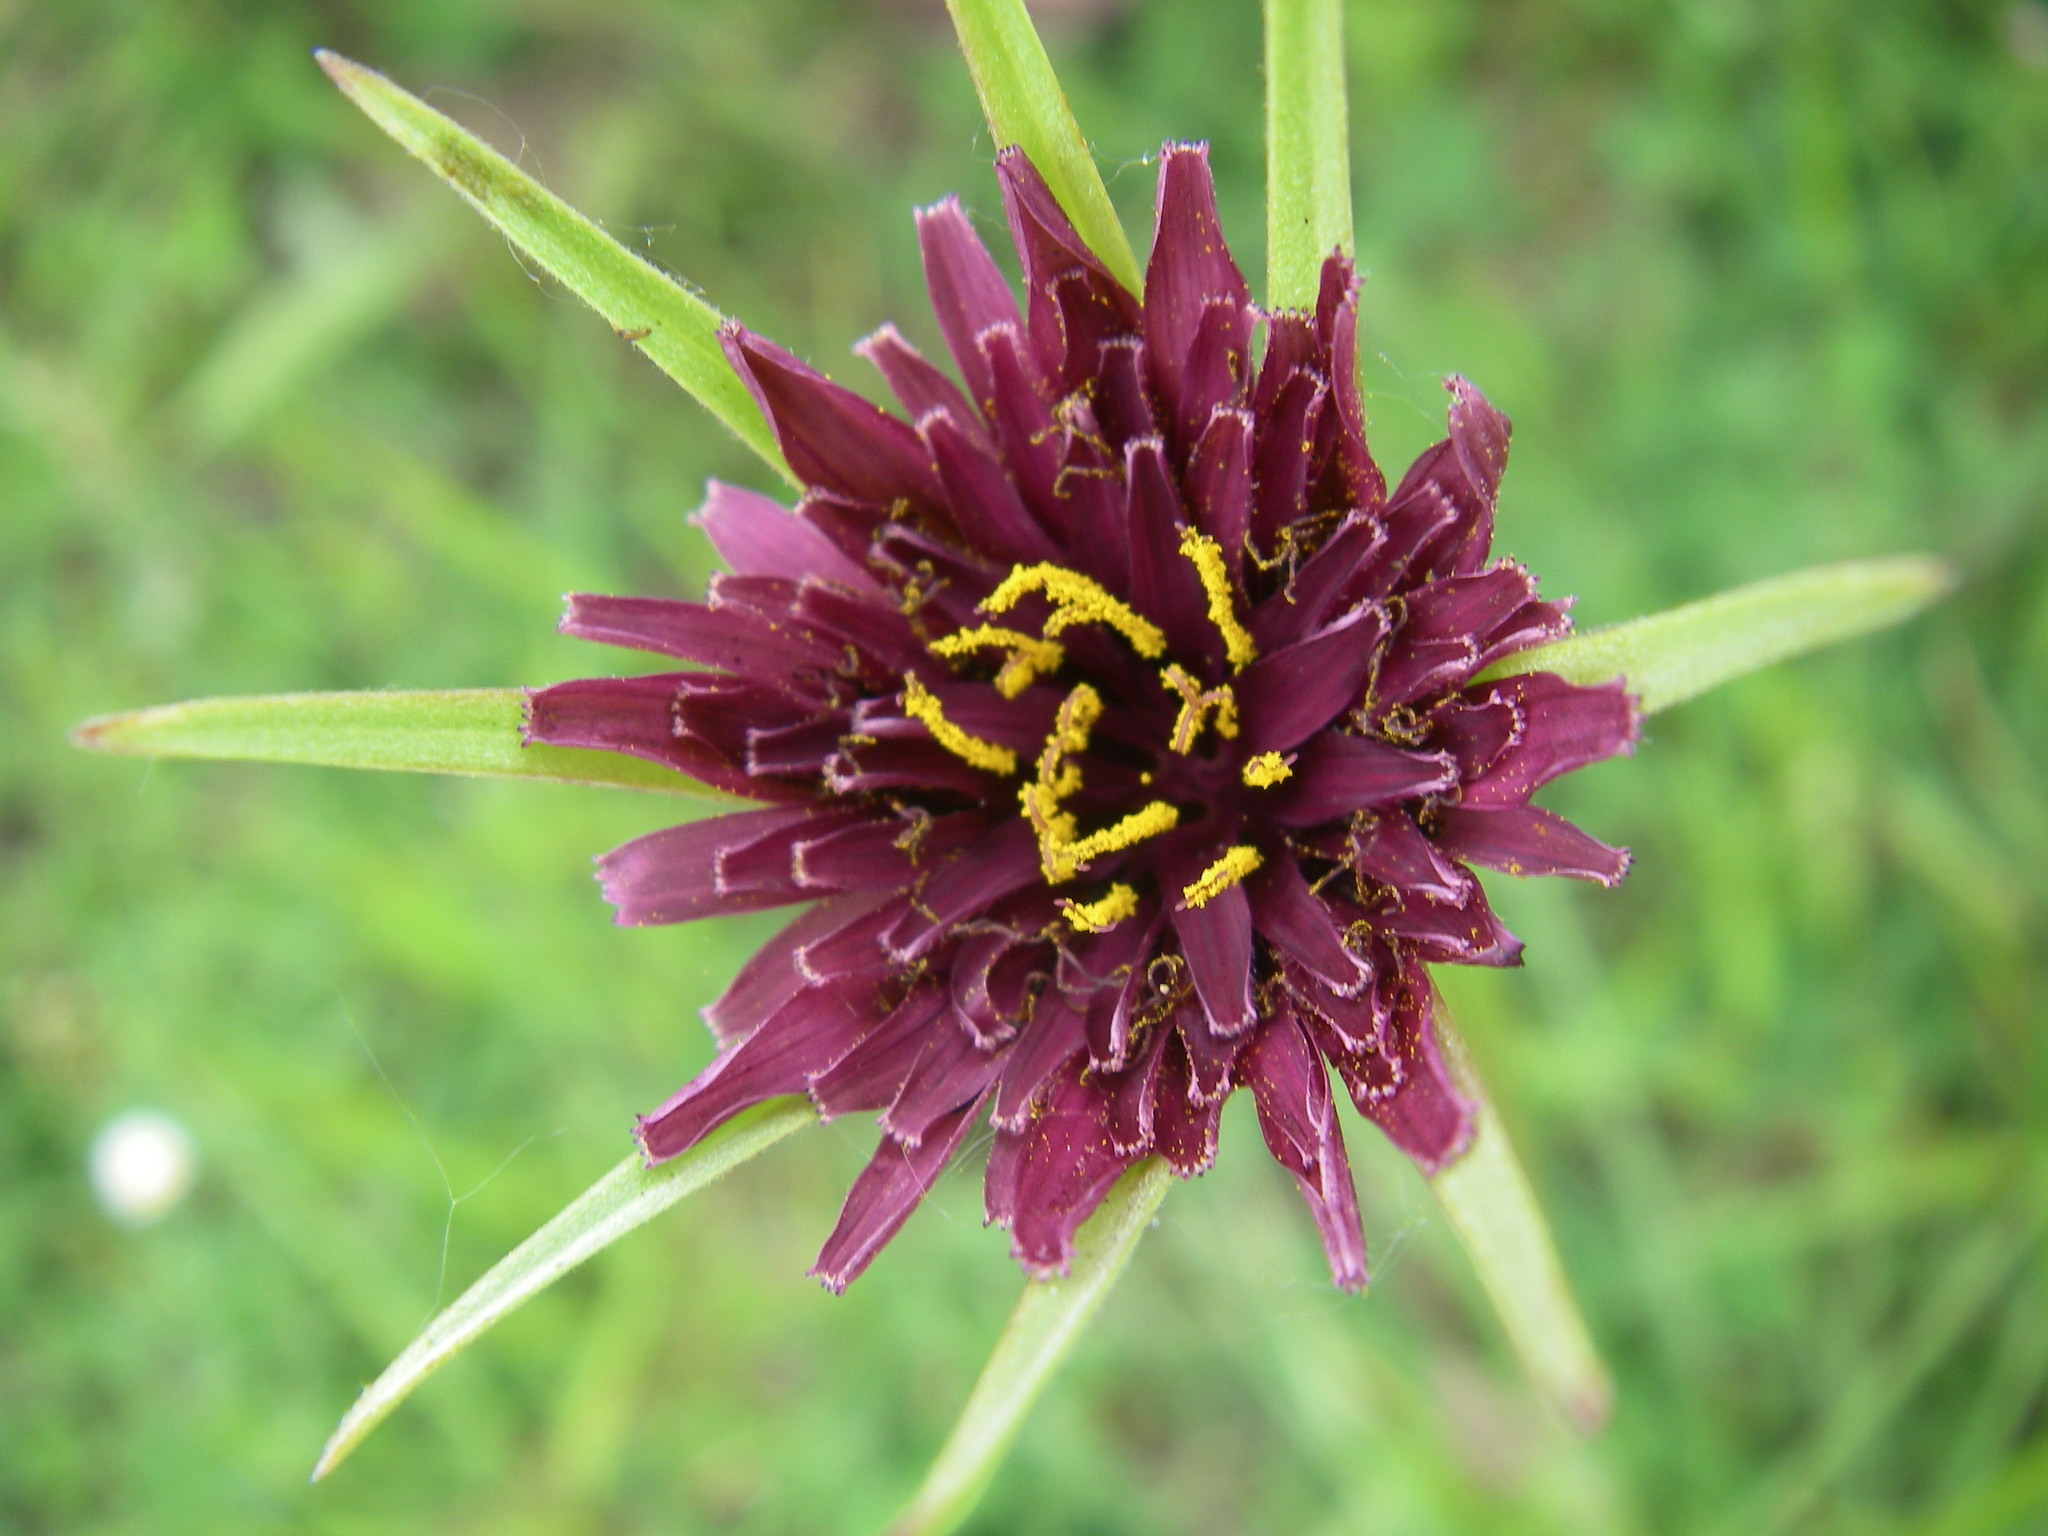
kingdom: Plantae
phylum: Tracheophyta
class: Magnoliopsida
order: Asterales
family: Asteraceae
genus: Tragopogon
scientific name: Tragopogon porrifolius
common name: Salsify
